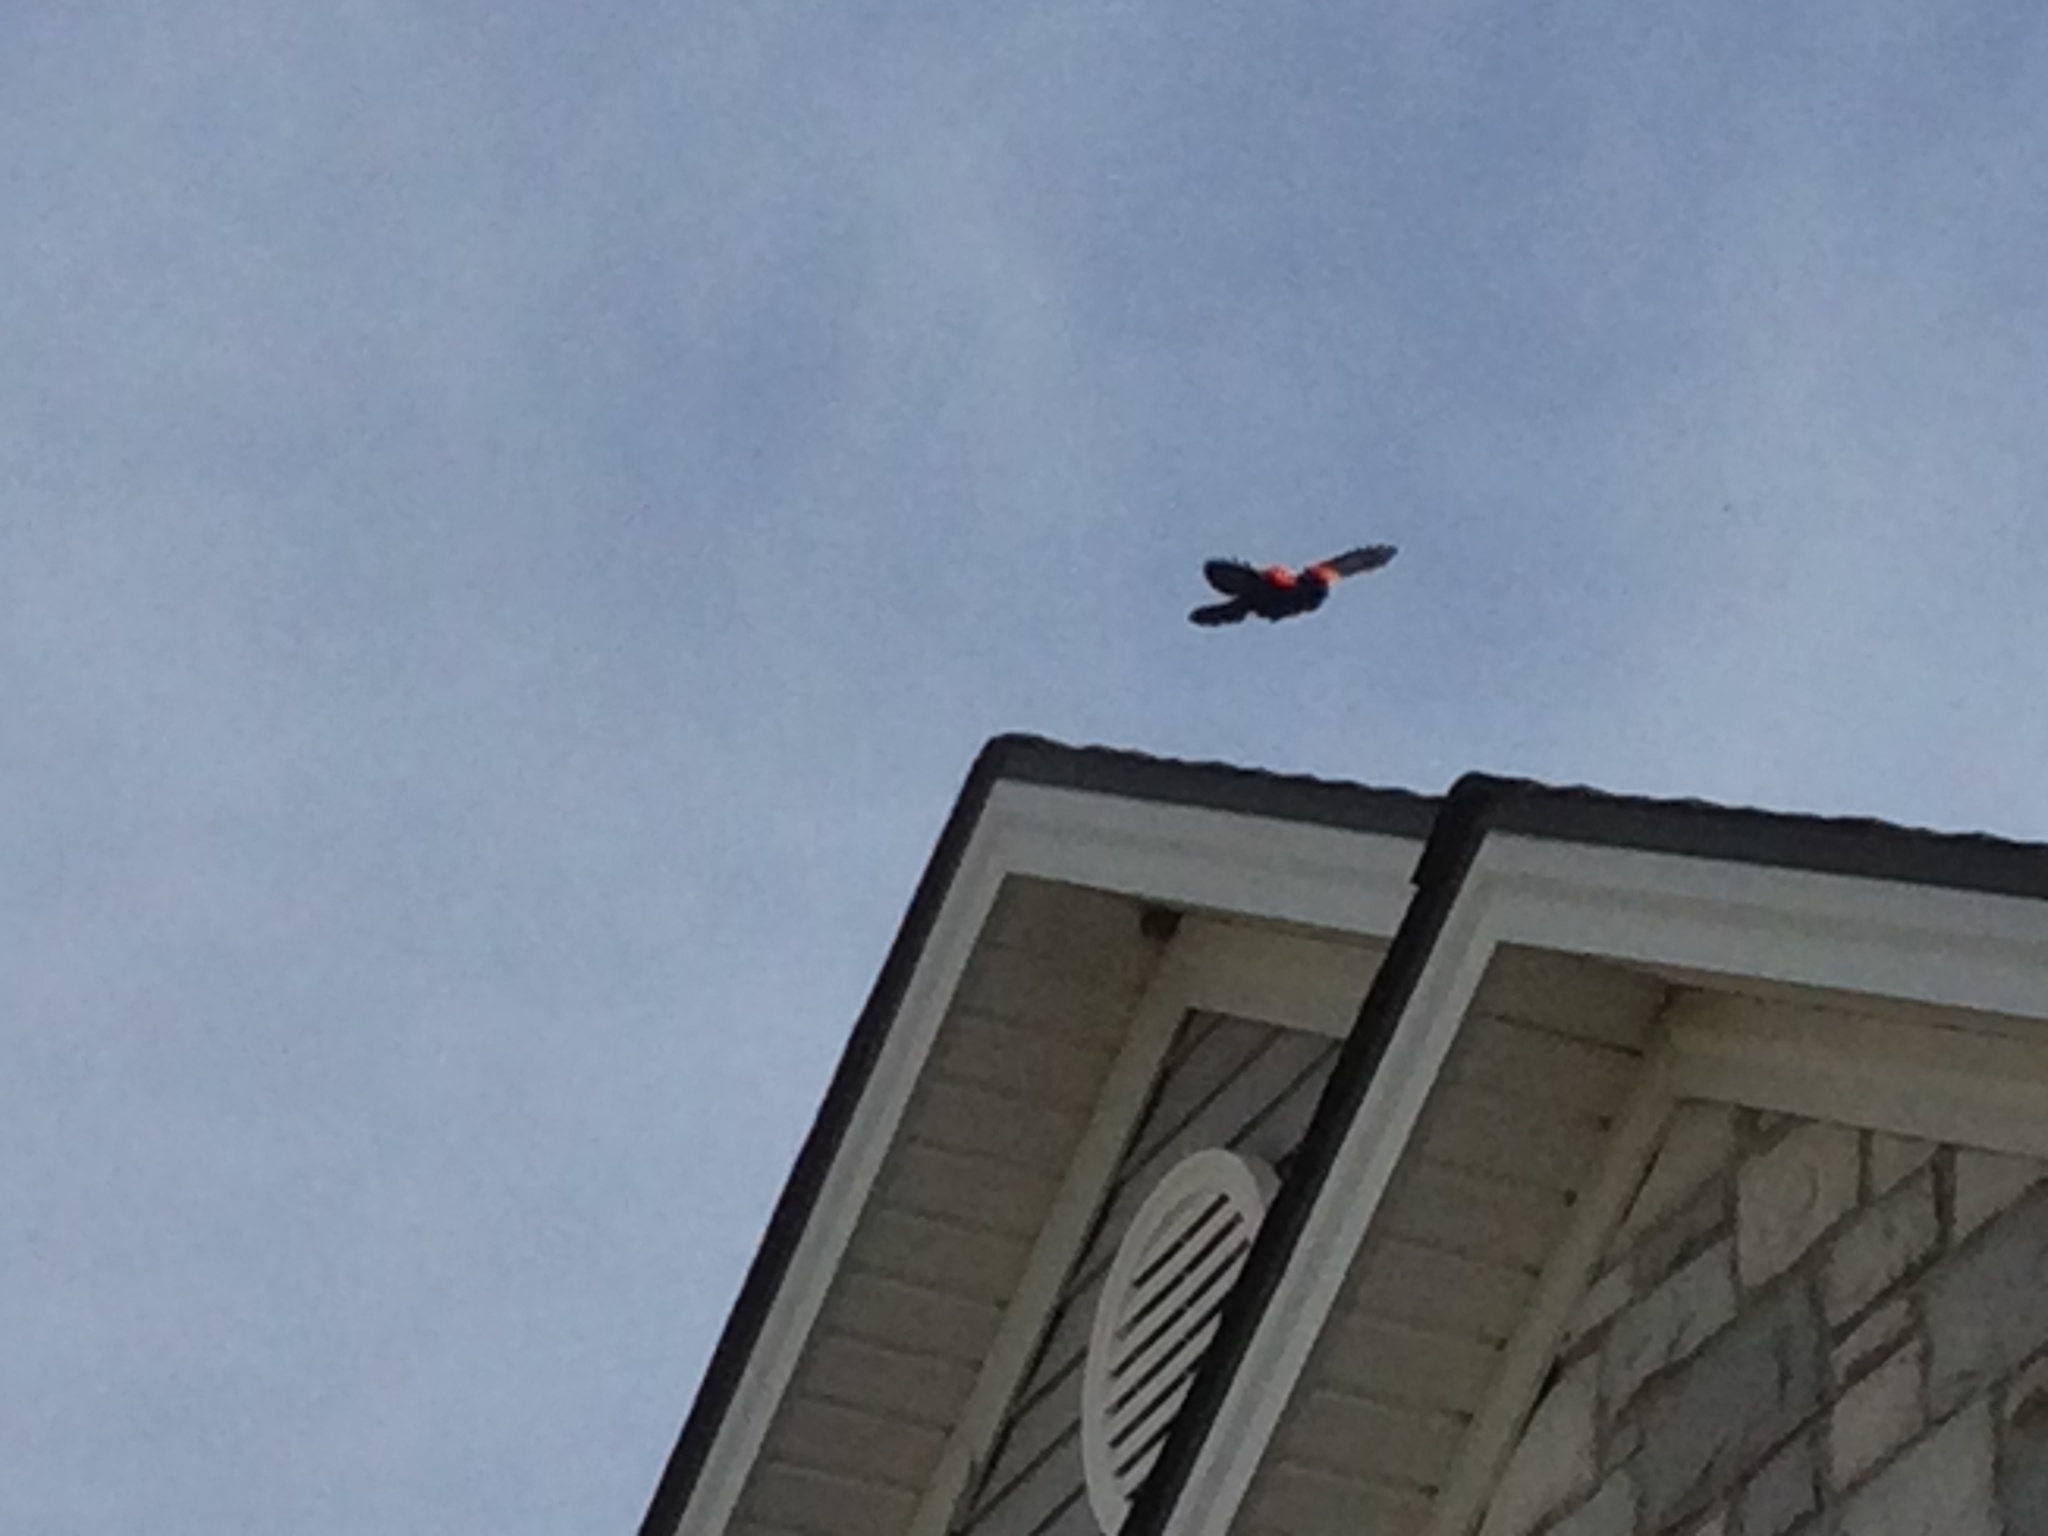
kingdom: Animalia
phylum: Chordata
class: Aves
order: Passeriformes
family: Icteridae
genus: Agelaius
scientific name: Agelaius phoeniceus
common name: Red-winged blackbird
